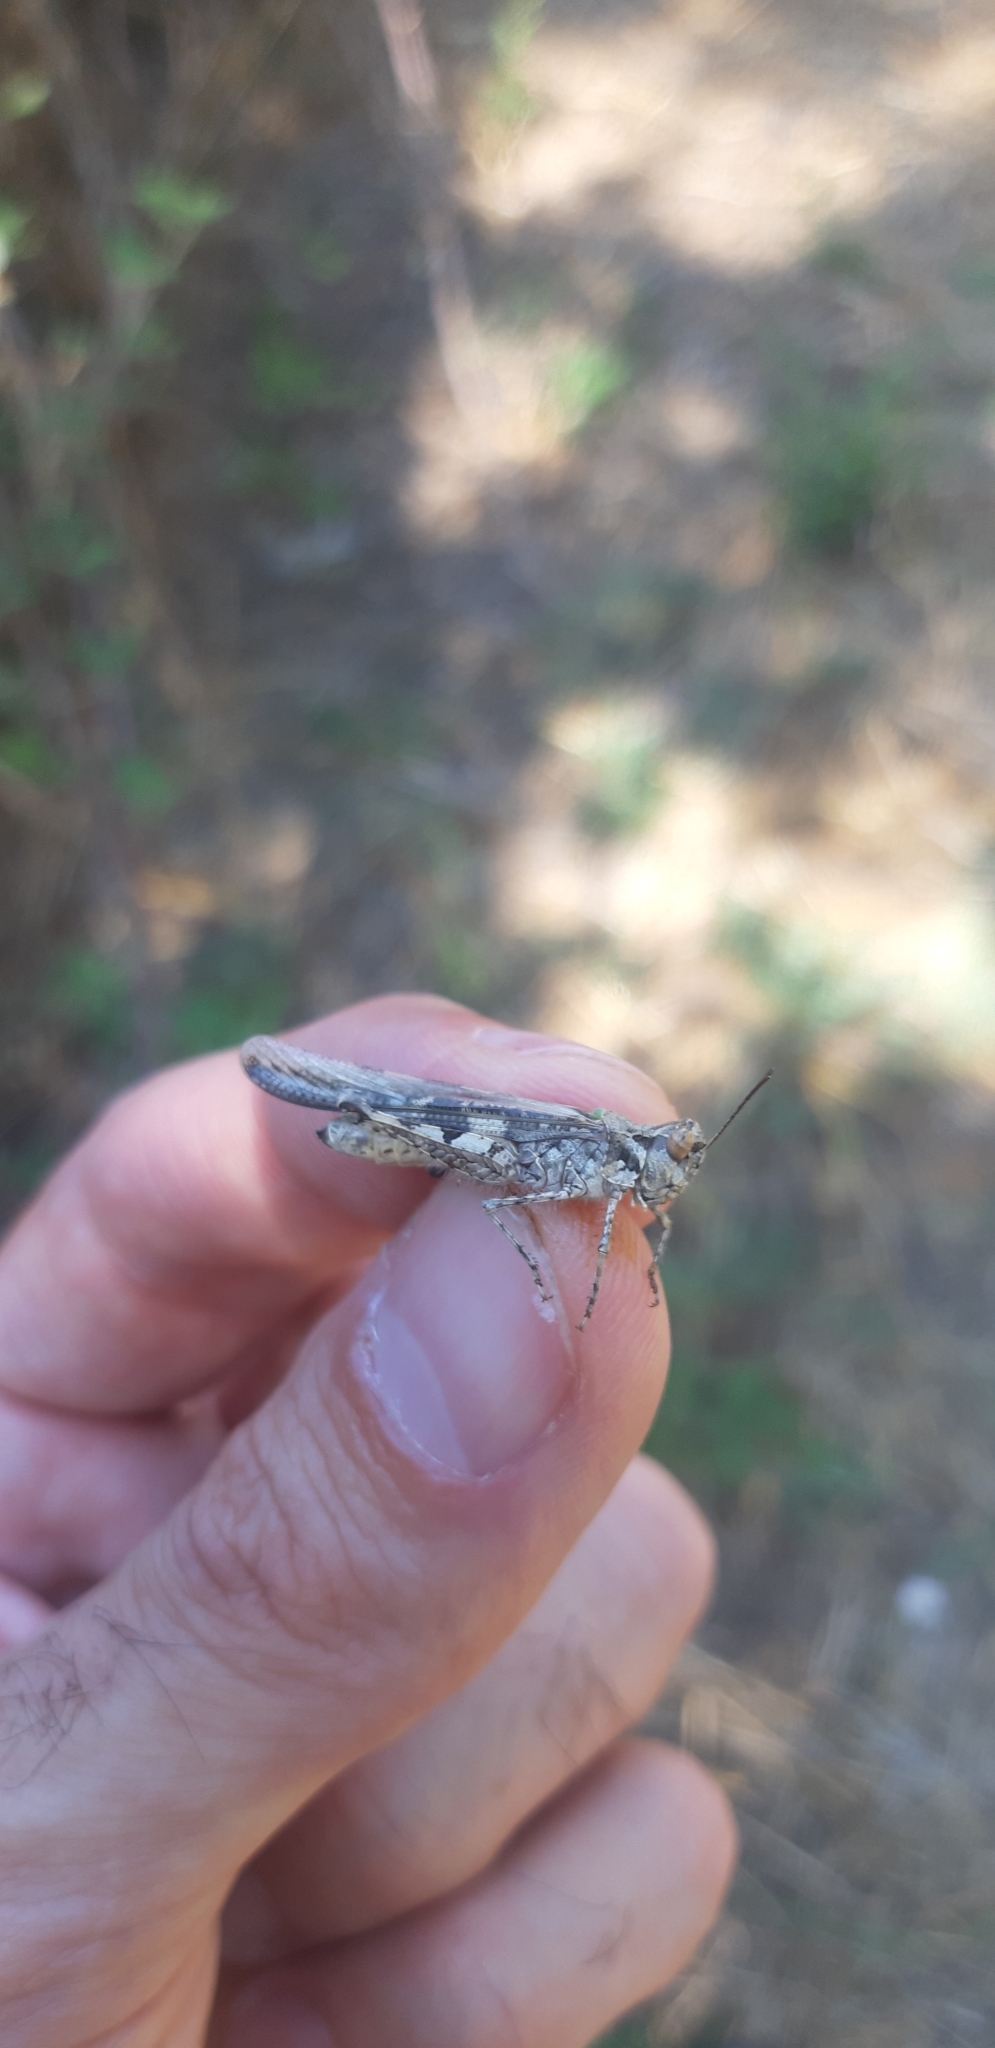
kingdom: Animalia
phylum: Arthropoda
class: Insecta
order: Orthoptera
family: Acrididae
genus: Acrotylus
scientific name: Acrotylus patruelis
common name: Slender burrowing grasshopper
